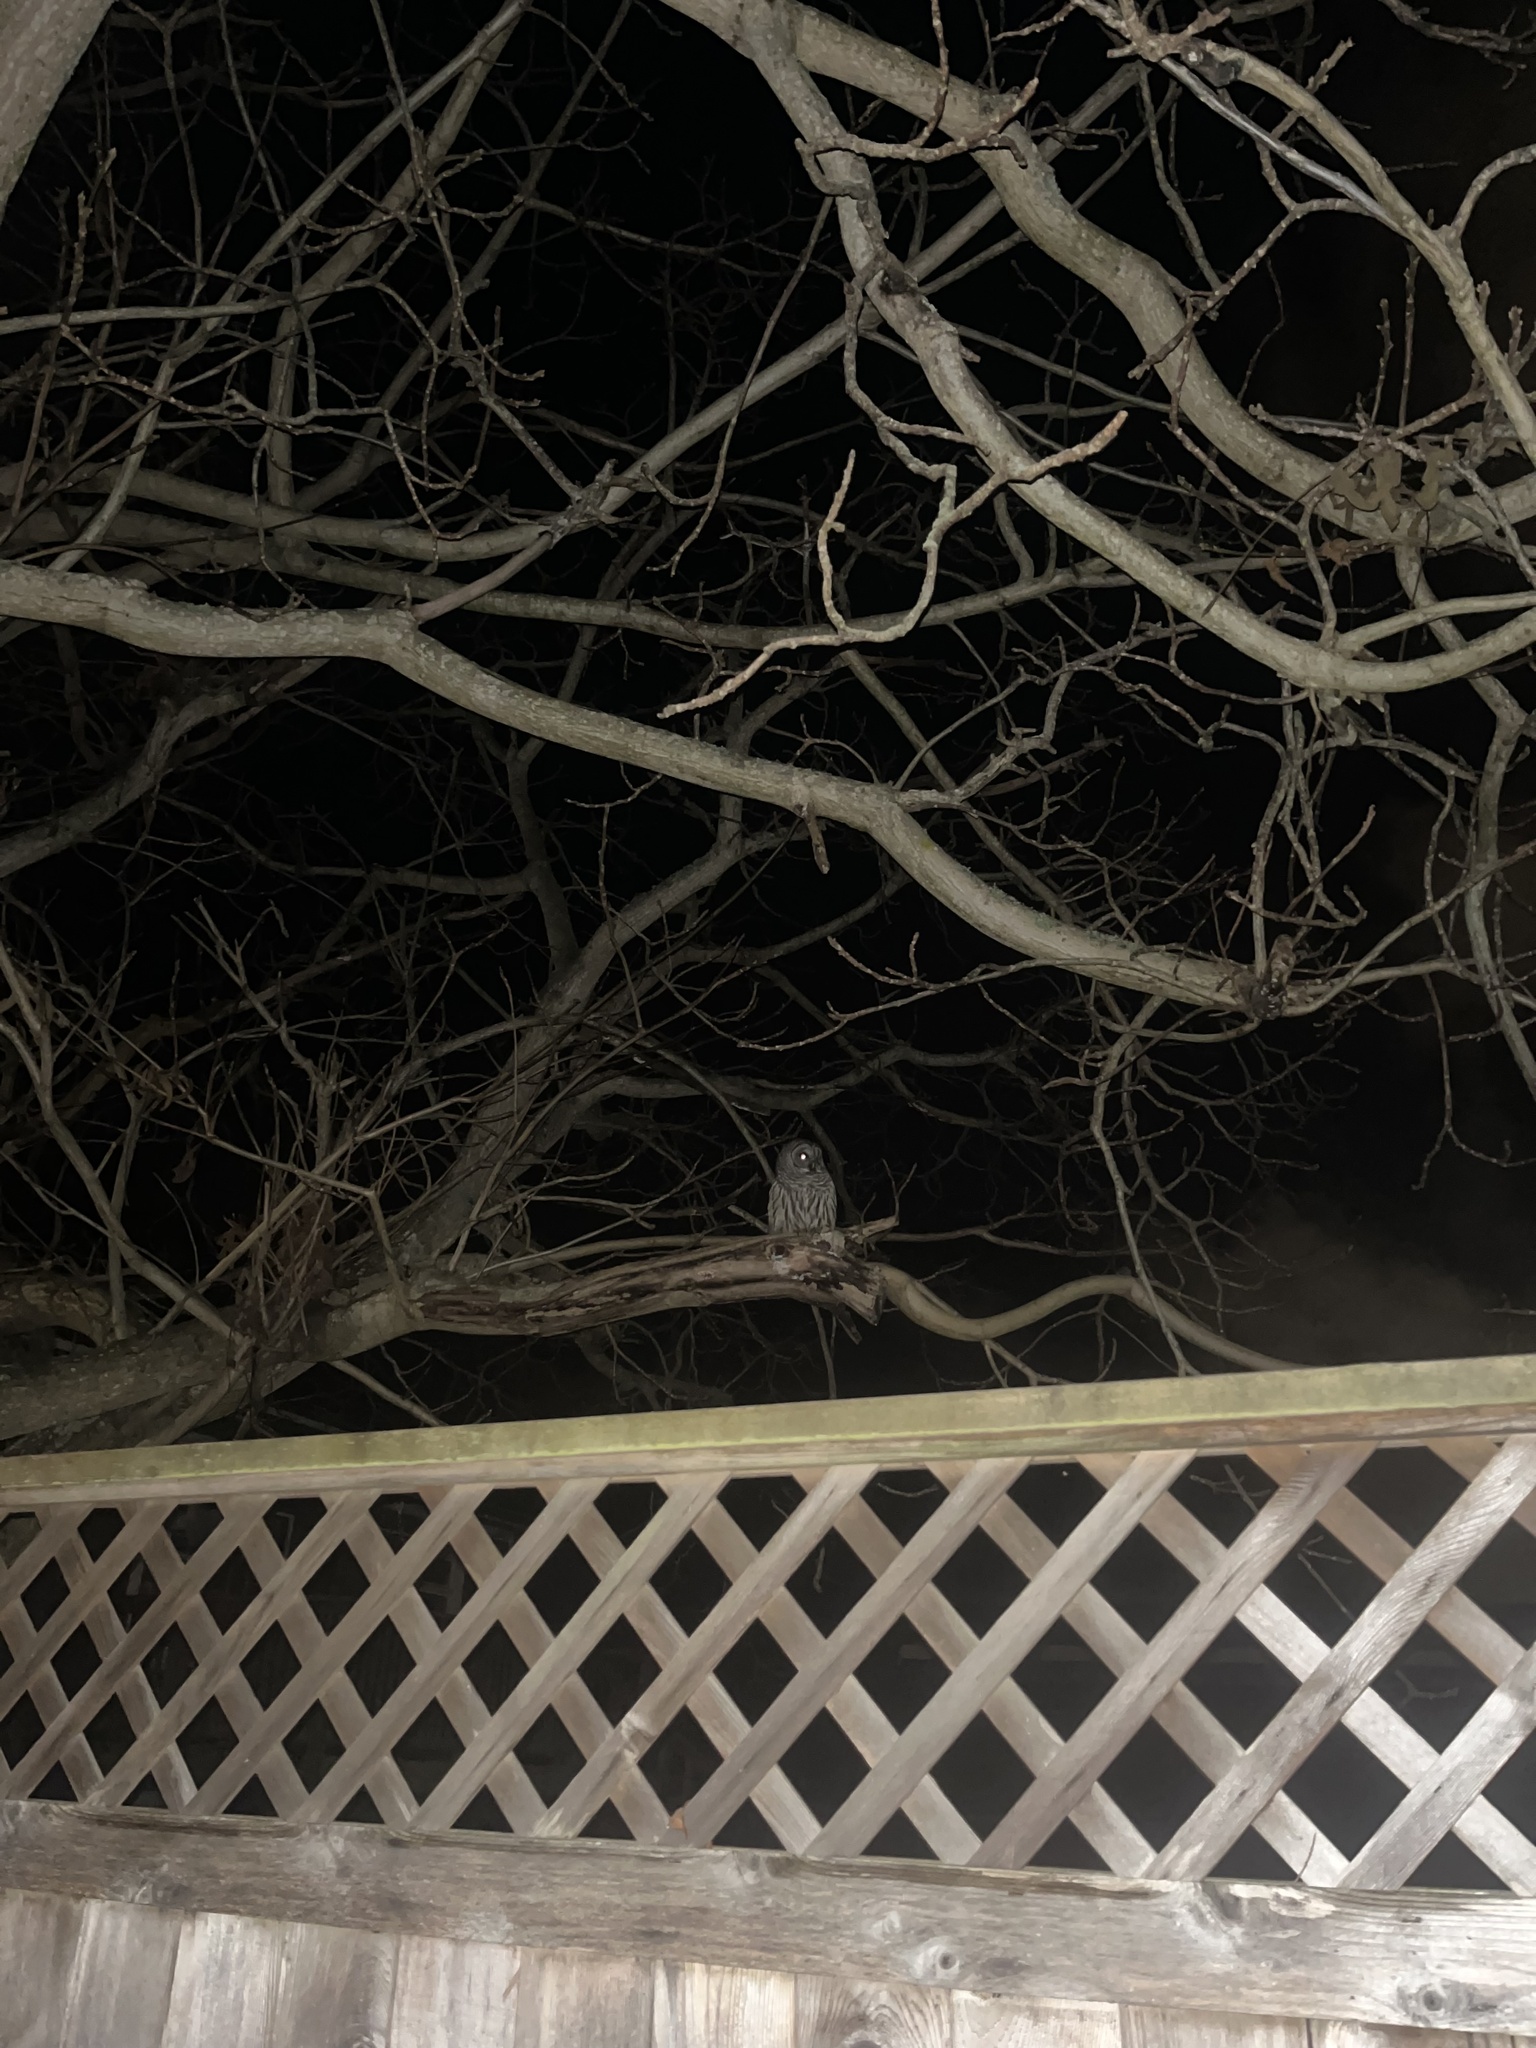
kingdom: Animalia
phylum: Chordata
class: Aves
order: Strigiformes
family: Strigidae
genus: Strix
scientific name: Strix varia
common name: Barred owl
